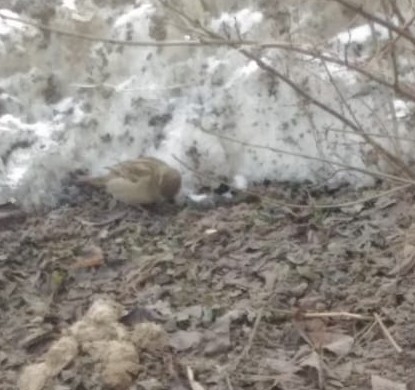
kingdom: Animalia
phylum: Chordata
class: Aves
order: Passeriformes
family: Passeridae
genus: Passer
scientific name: Passer domesticus
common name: House sparrow
